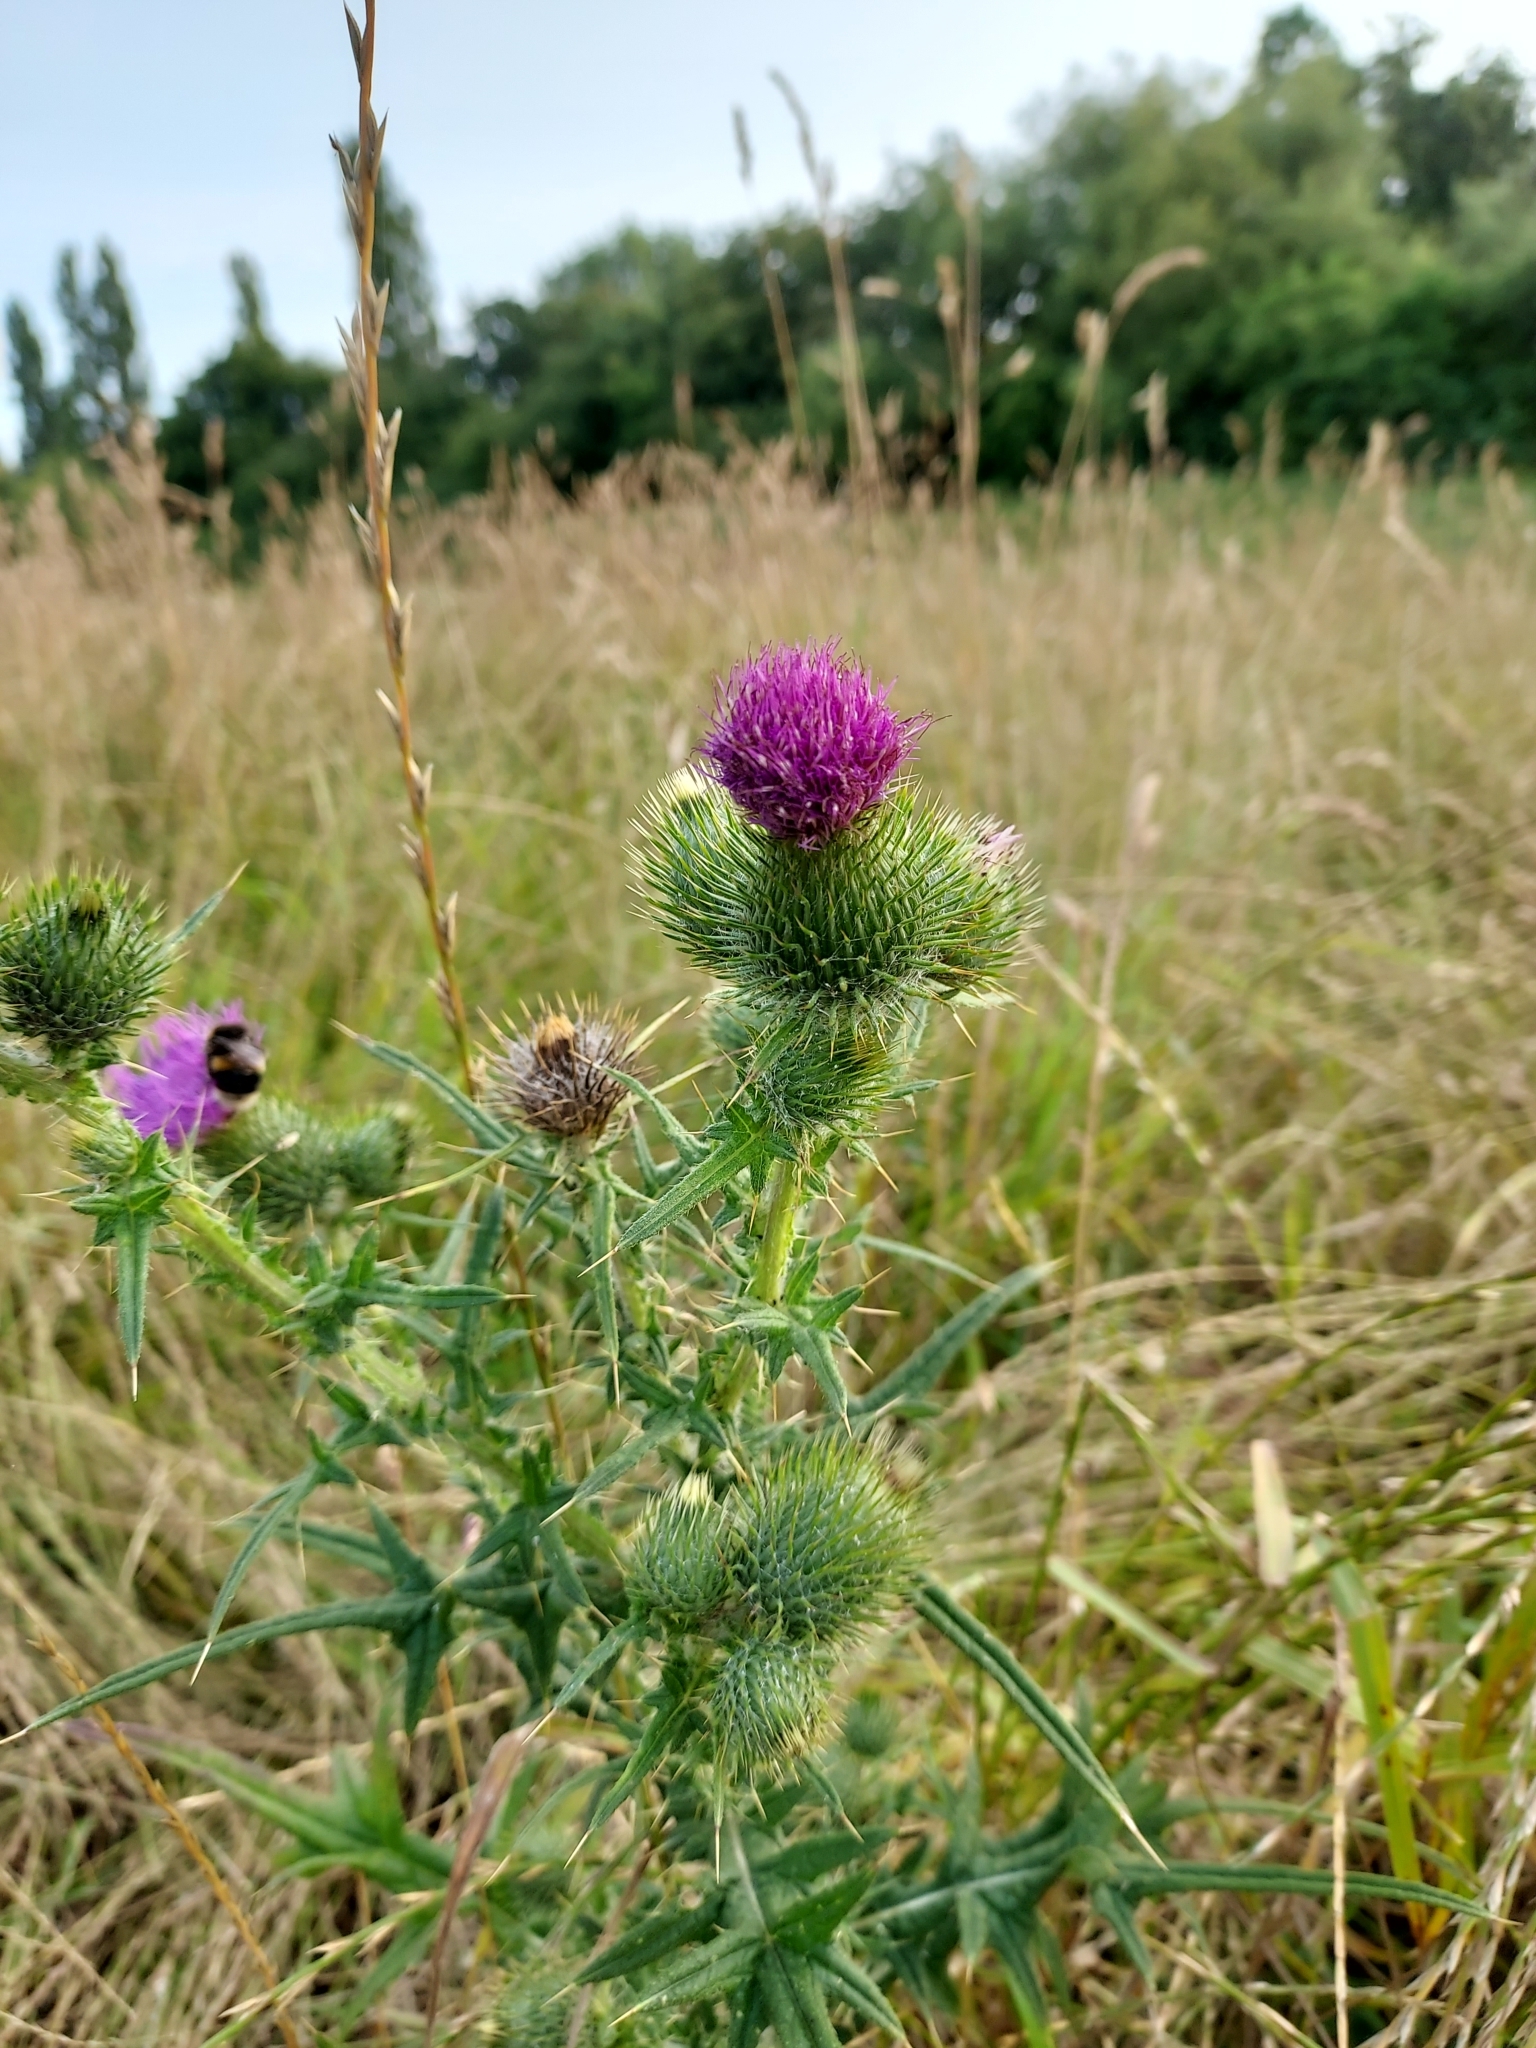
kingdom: Plantae
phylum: Tracheophyta
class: Magnoliopsida
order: Asterales
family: Asteraceae
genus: Cirsium
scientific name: Cirsium vulgare
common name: Bull thistle
